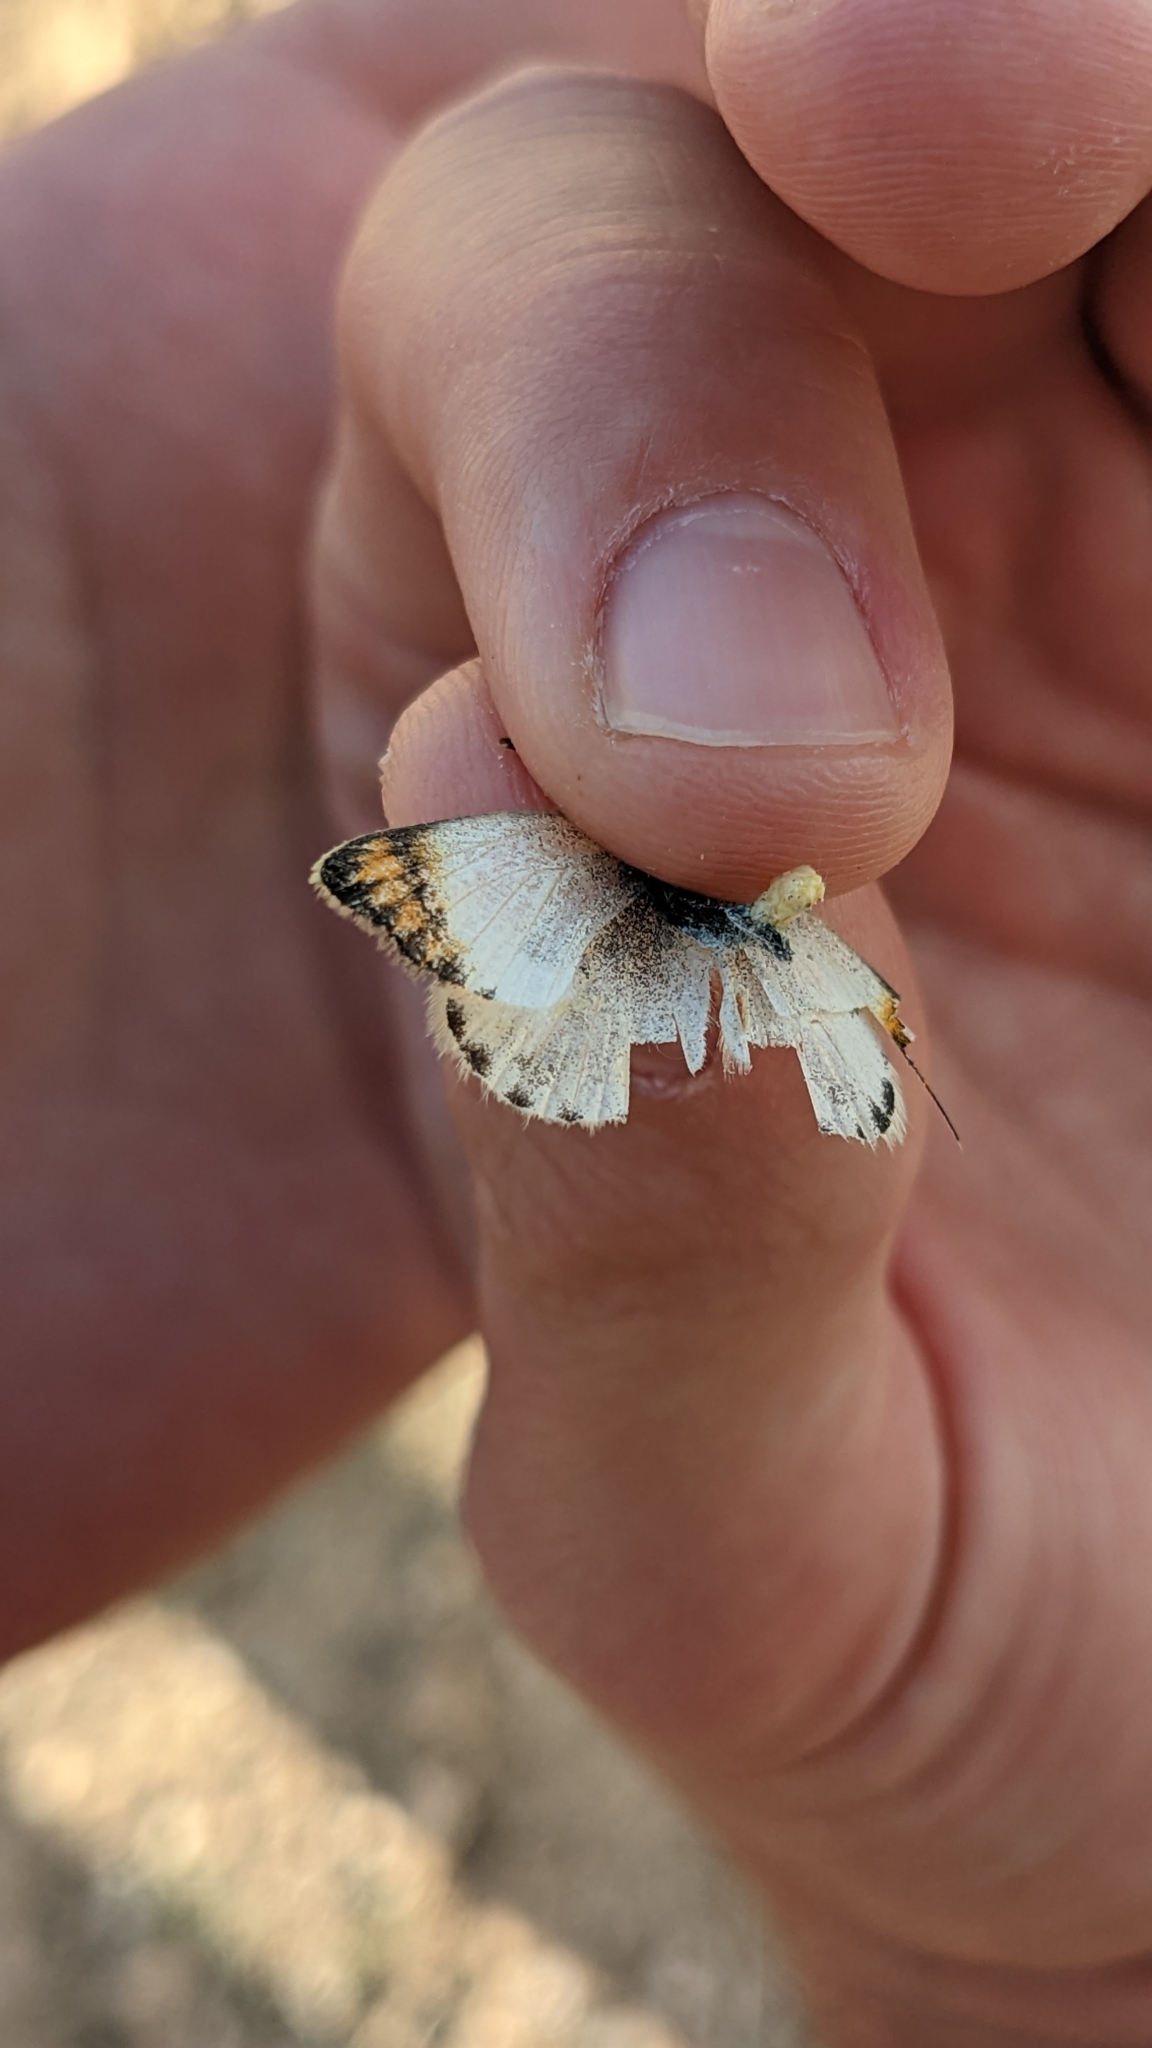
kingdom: Animalia
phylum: Arthropoda
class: Insecta
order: Lepidoptera
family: Pieridae
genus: Colotis
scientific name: Colotis evagore
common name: Desert orange-tip
